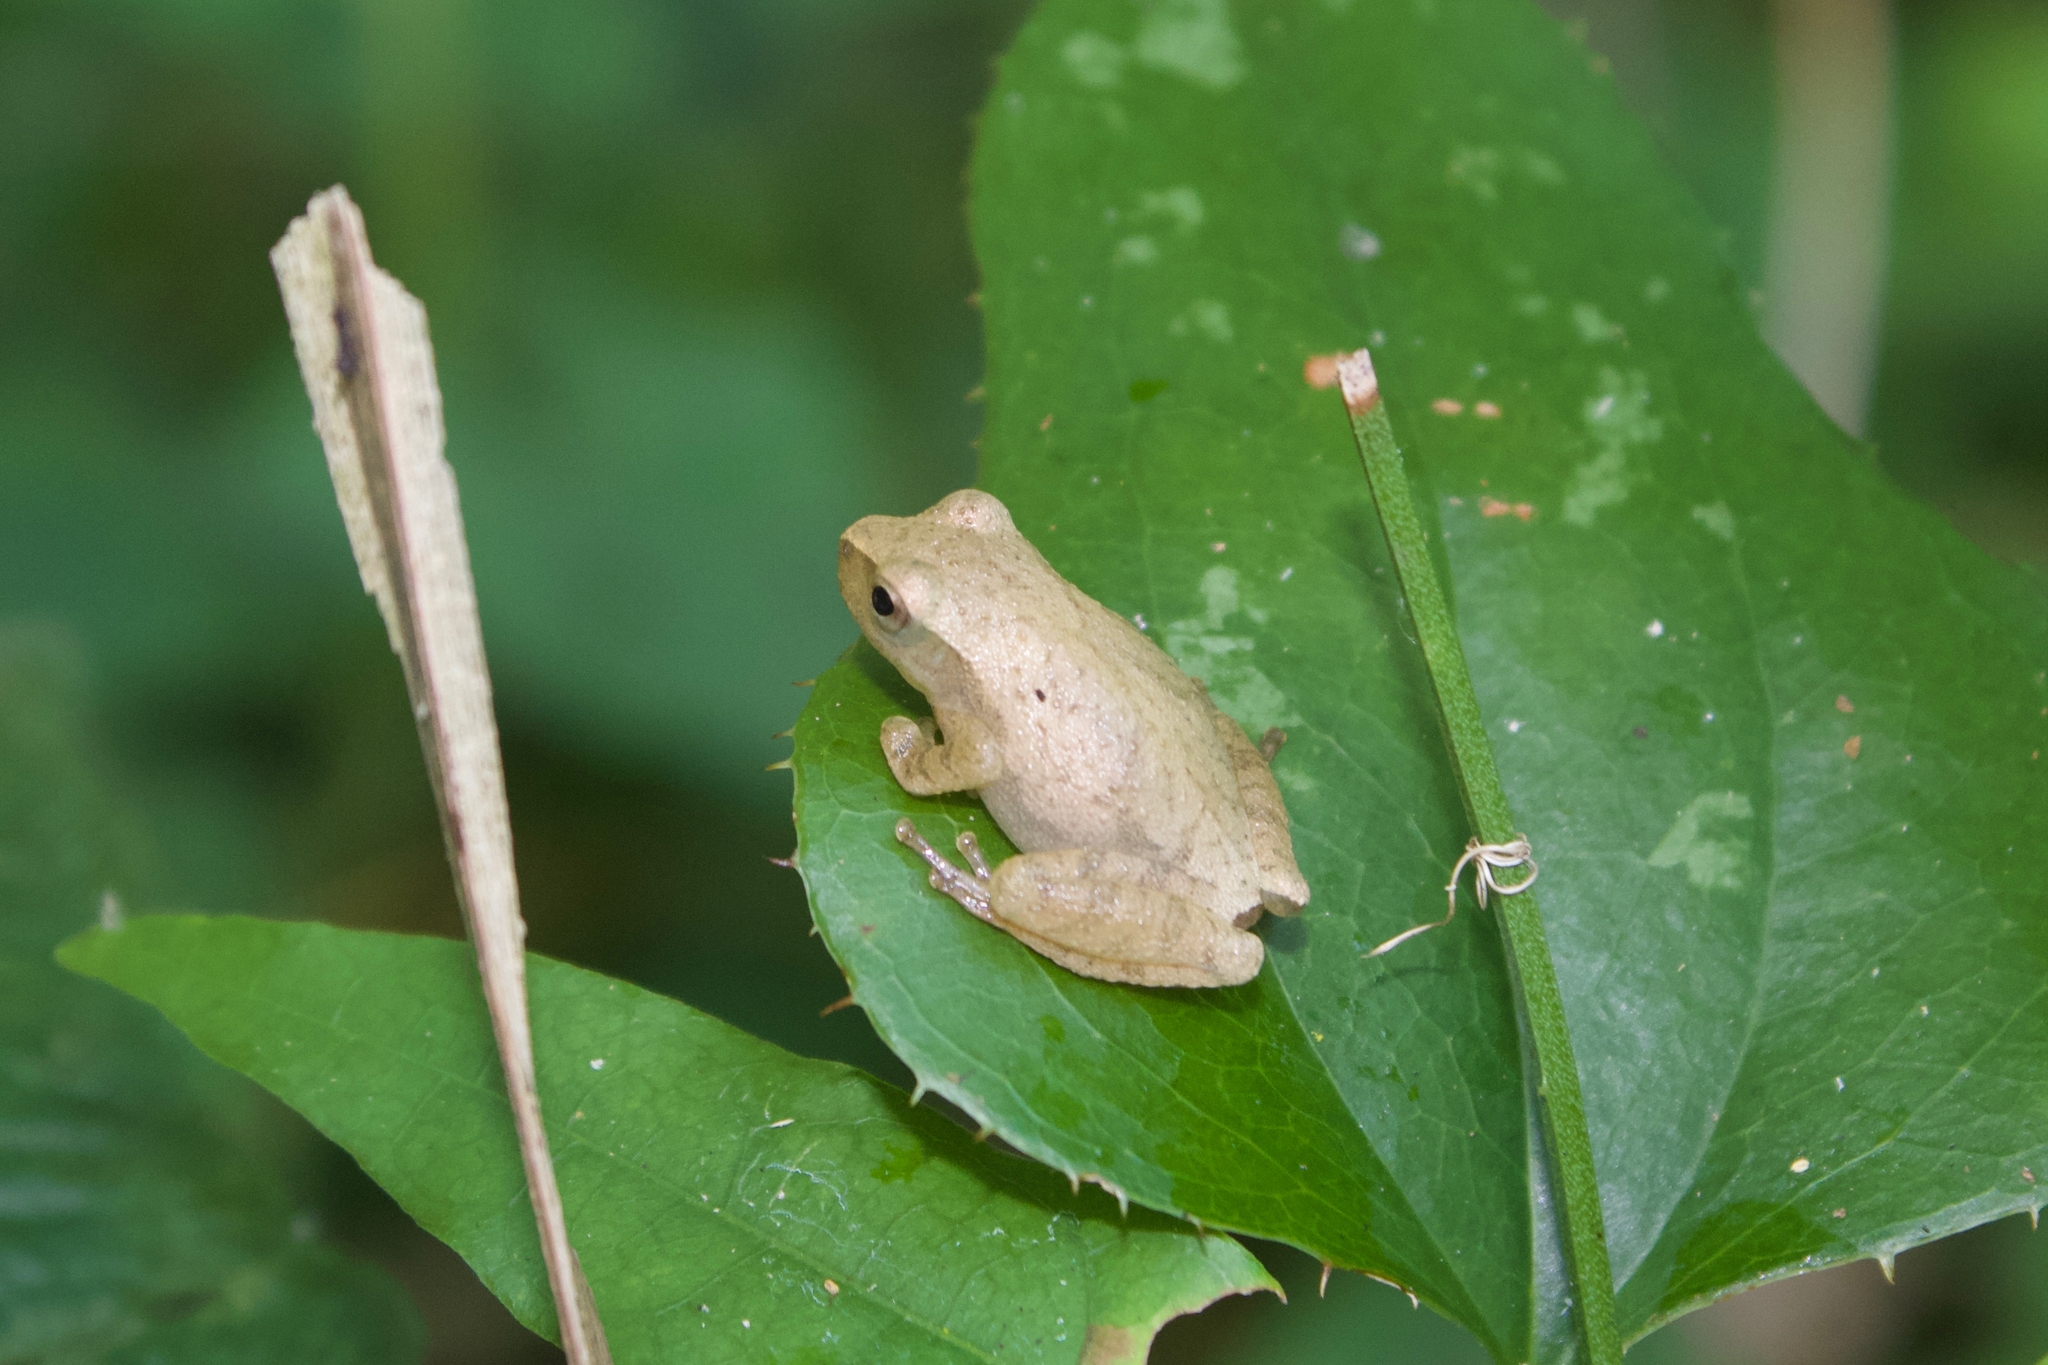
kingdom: Animalia
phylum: Chordata
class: Amphibia
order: Anura
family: Hylidae
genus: Pseudacris
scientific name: Pseudacris crucifer
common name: Spring peeper
